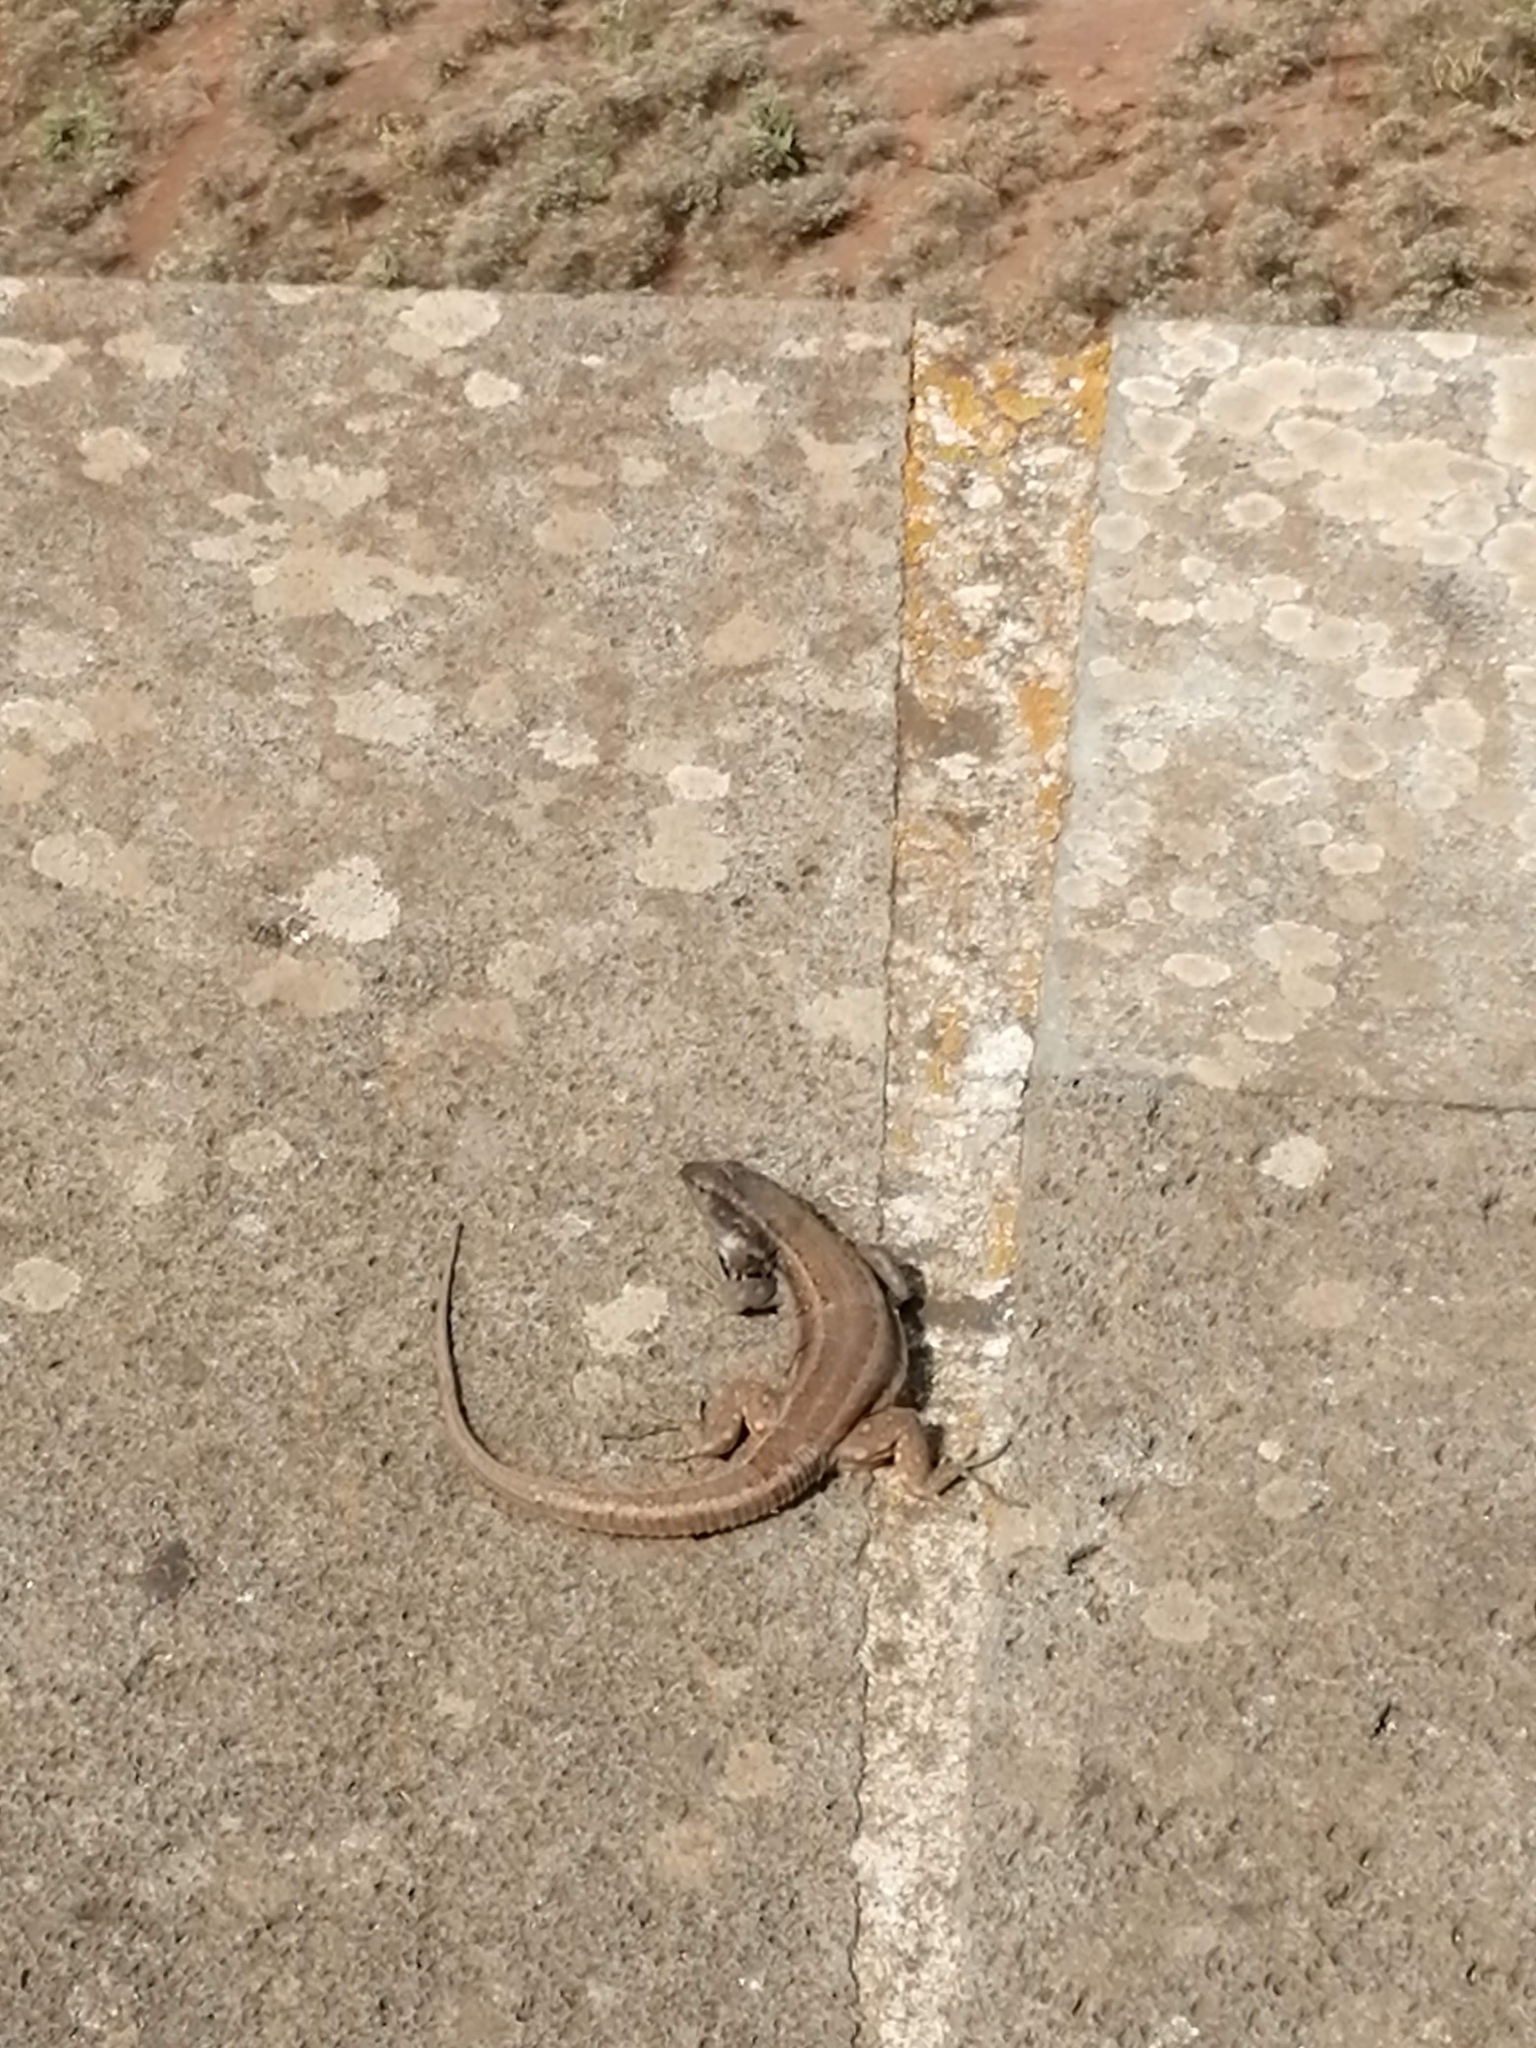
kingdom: Animalia
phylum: Chordata
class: Squamata
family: Lacertidae
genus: Gallotia
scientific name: Gallotia galloti
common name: Gallot's lizard
